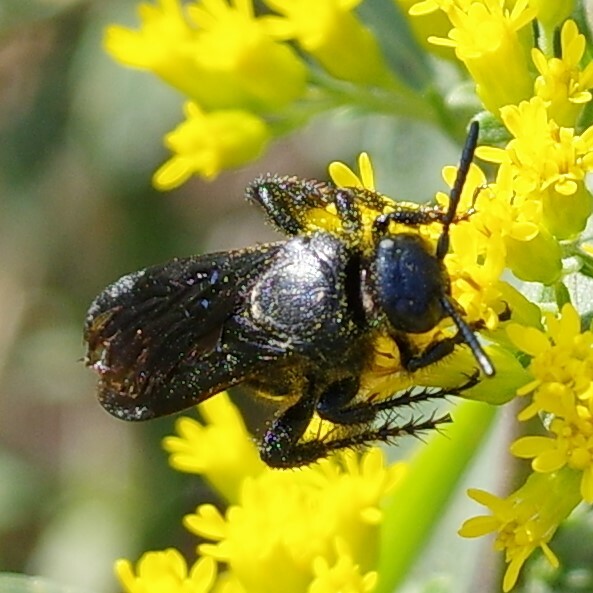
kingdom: Animalia
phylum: Arthropoda
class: Insecta
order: Hymenoptera
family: Scoliidae
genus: Scolia
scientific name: Scolia dubia
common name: Blue-winged scoliid wasp
